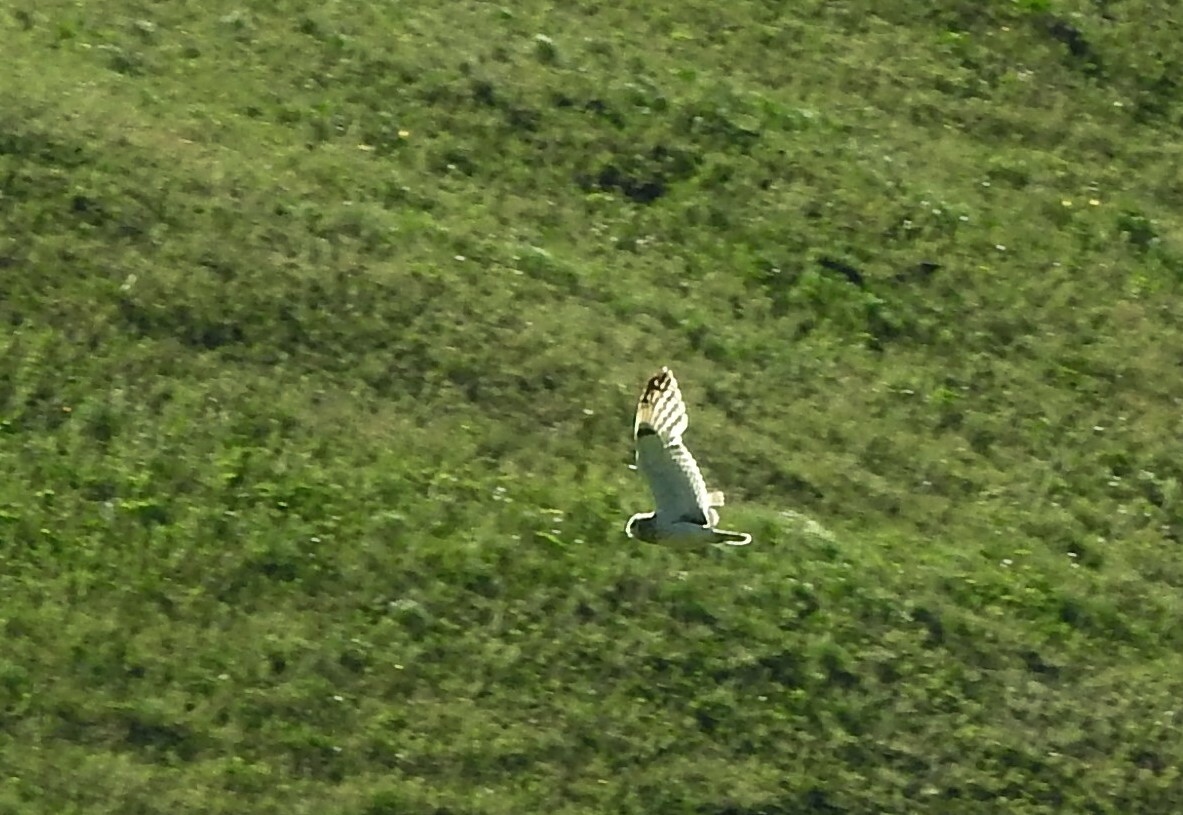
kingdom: Animalia
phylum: Chordata
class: Aves
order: Strigiformes
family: Strigidae
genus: Asio
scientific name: Asio flammeus
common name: Short-eared owl
